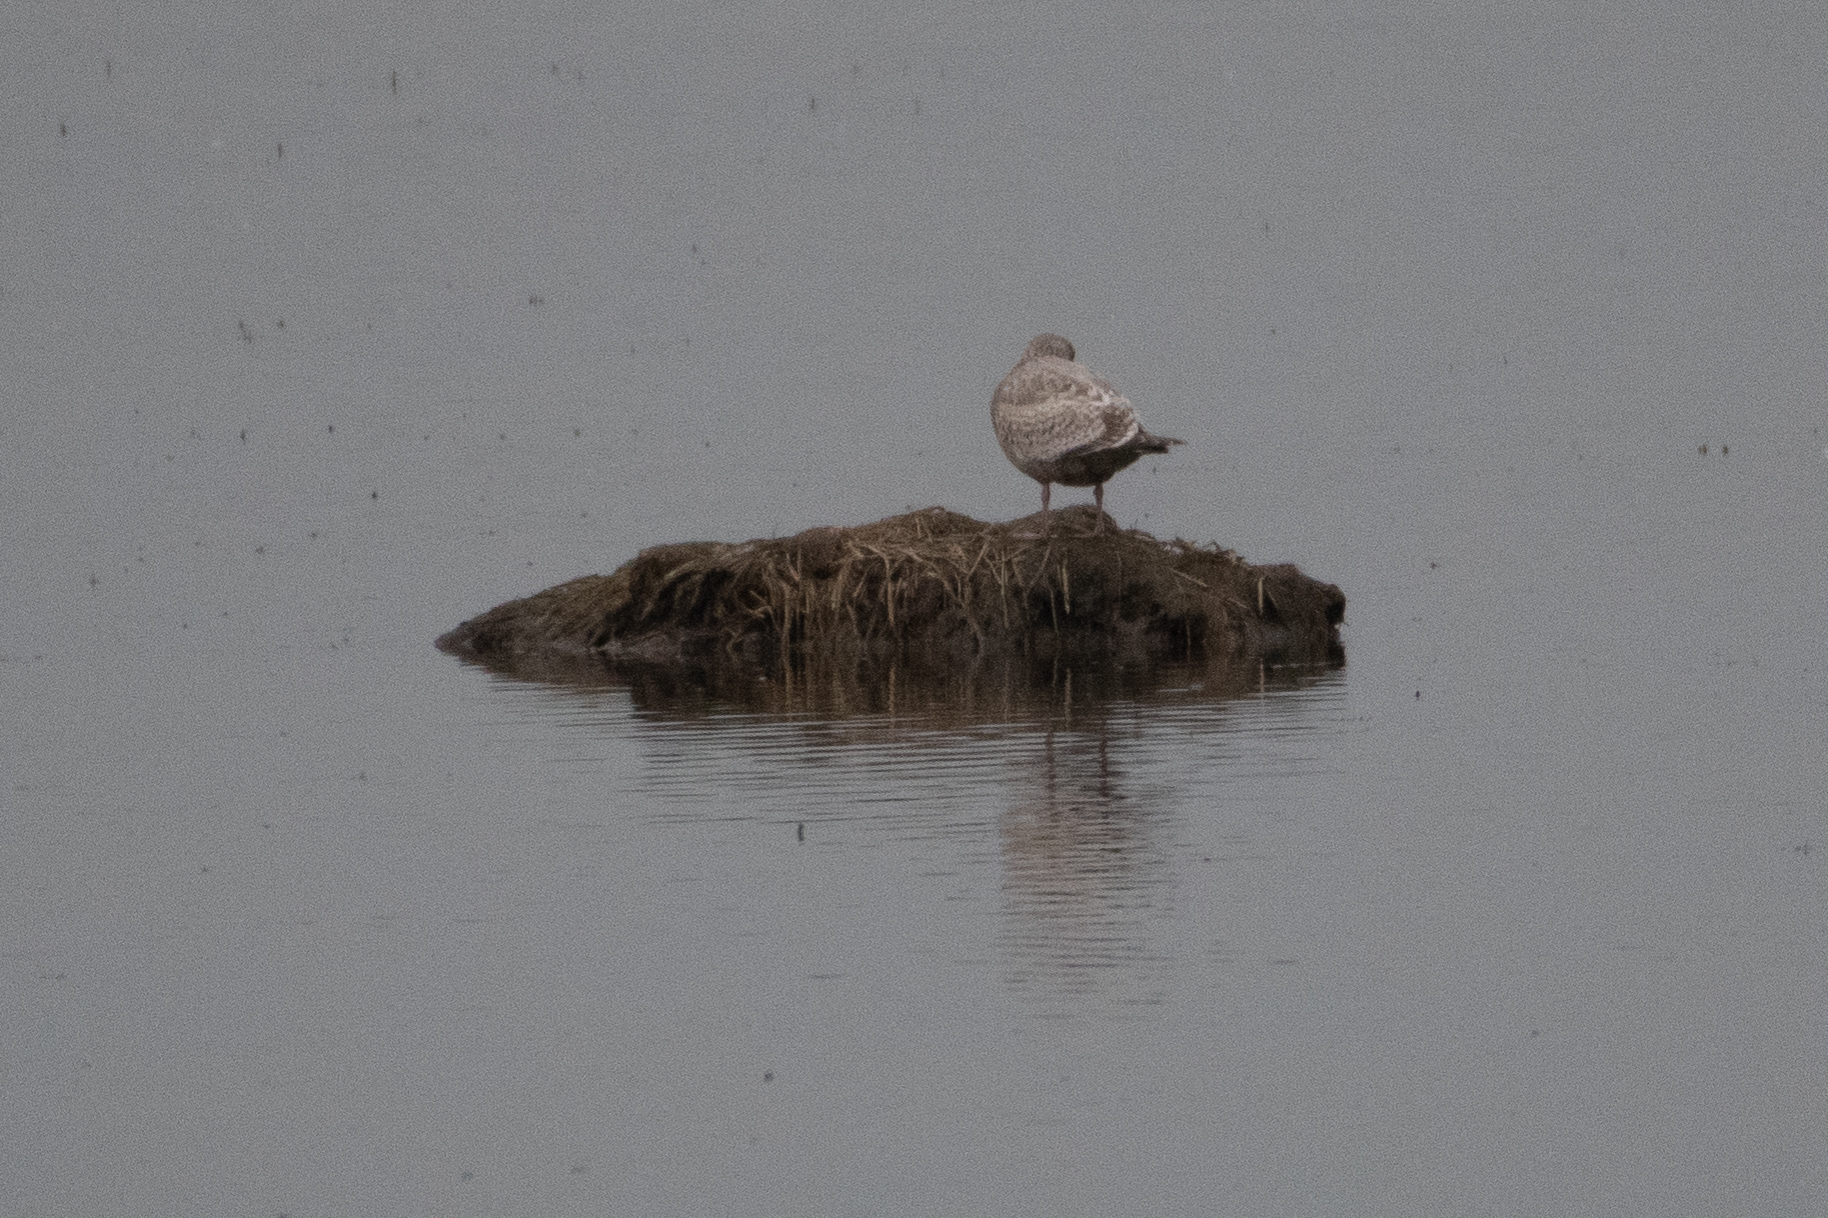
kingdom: Animalia
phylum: Chordata
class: Aves
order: Charadriiformes
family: Laridae
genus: Larus
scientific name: Larus
